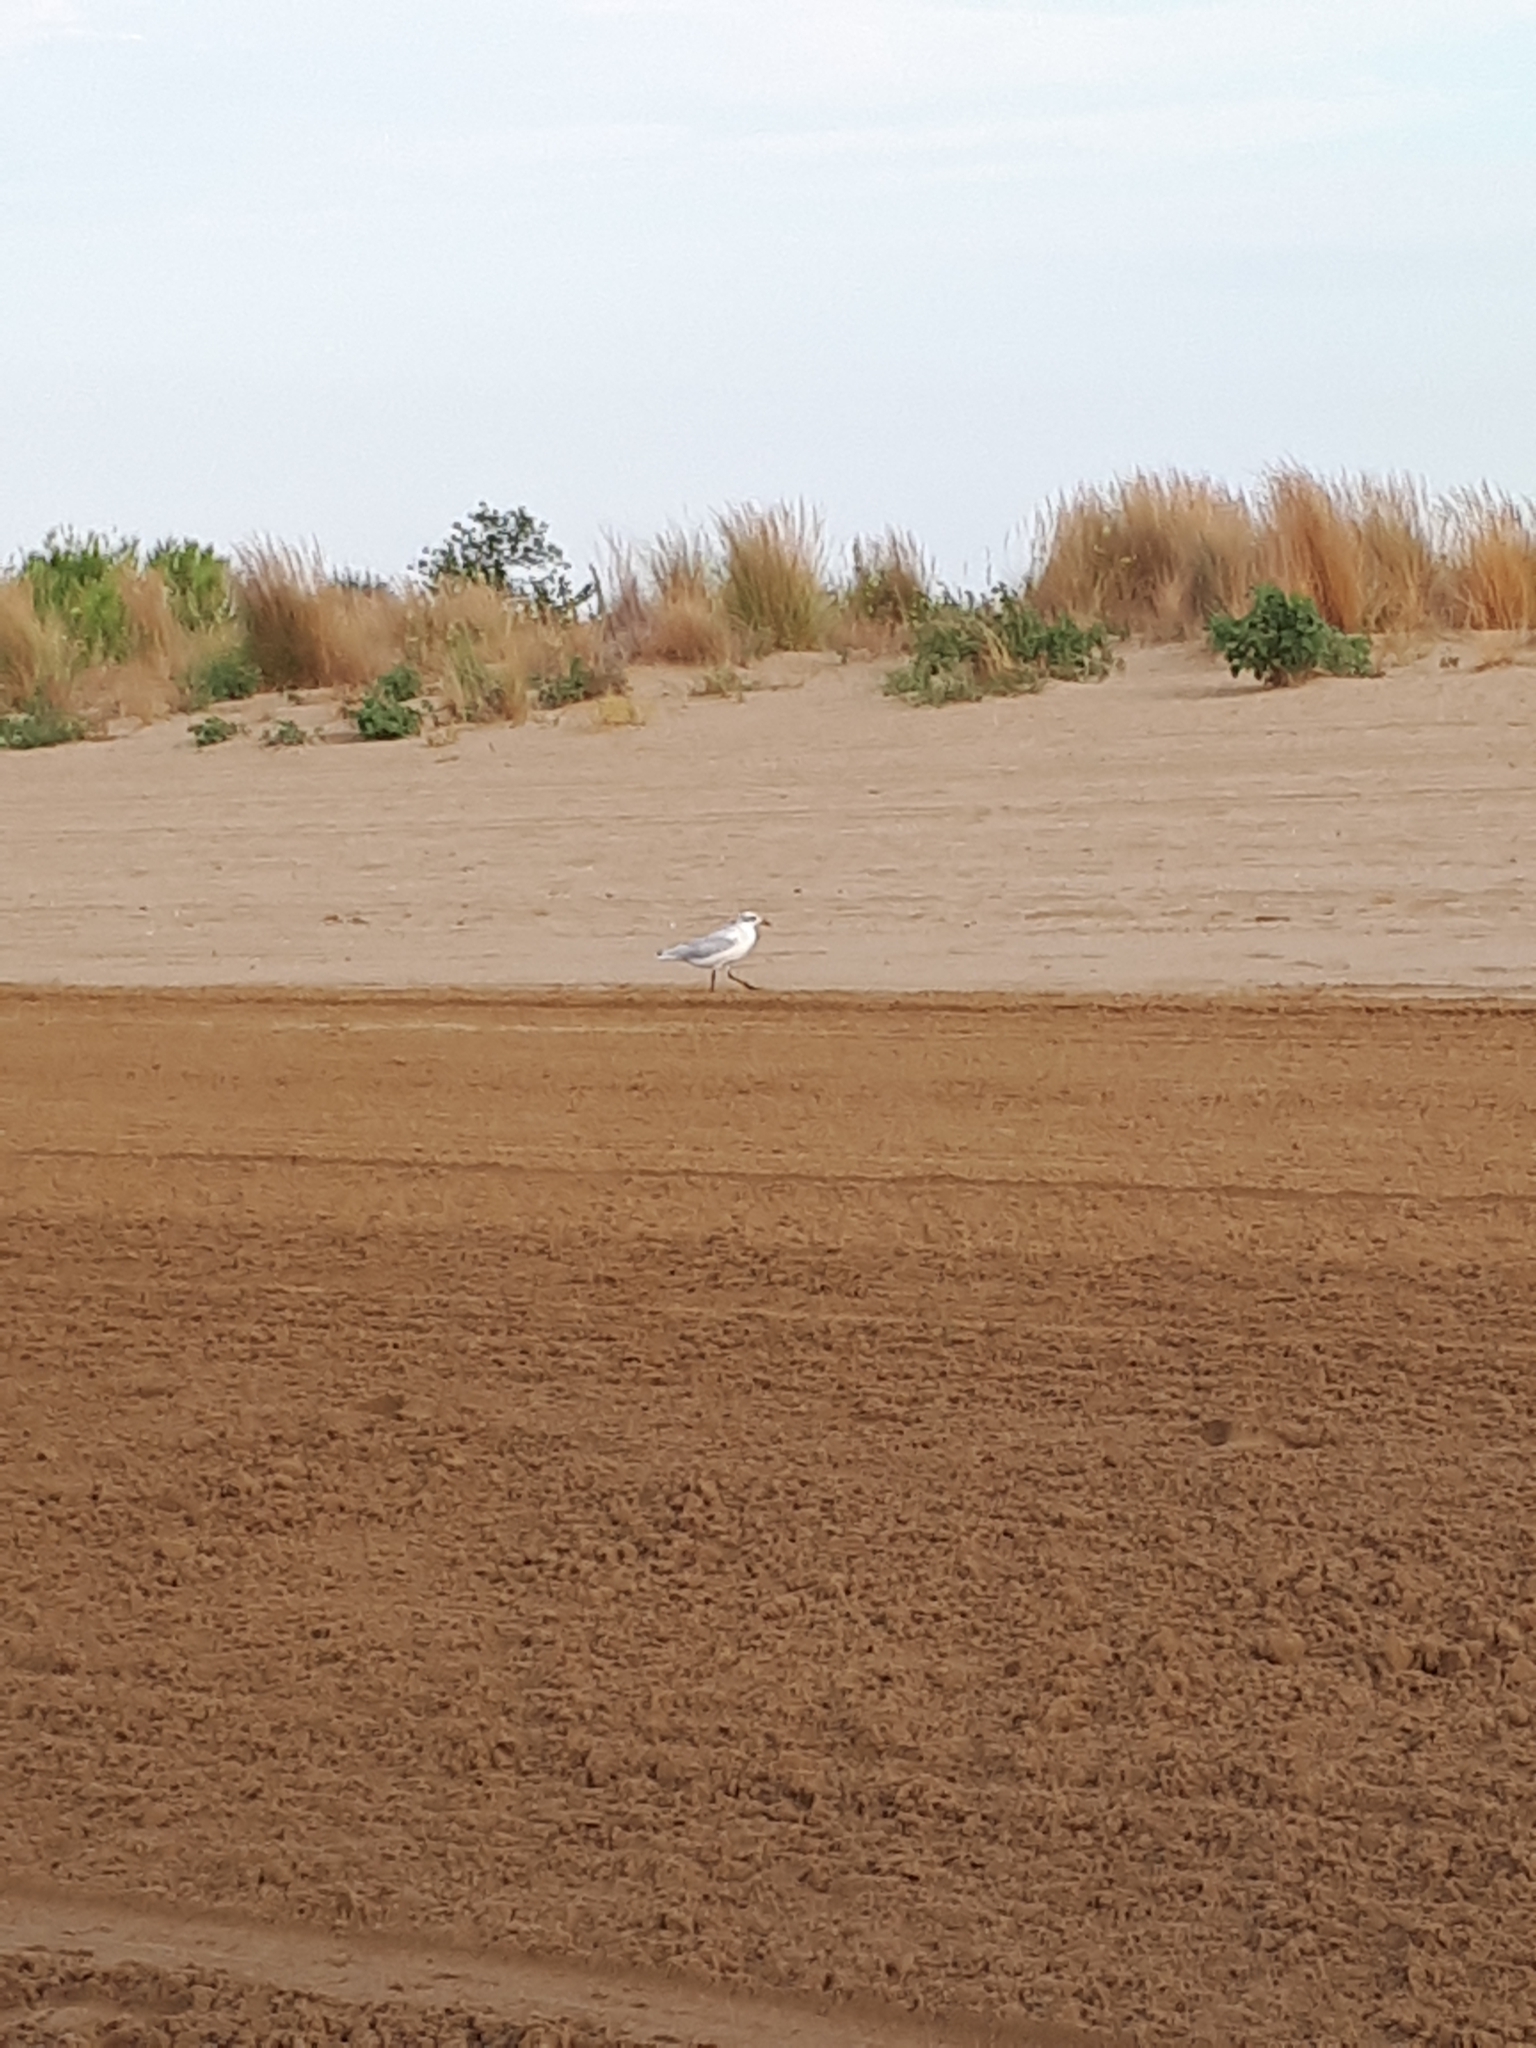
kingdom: Animalia
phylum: Chordata
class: Aves
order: Charadriiformes
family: Laridae
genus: Chroicocephalus
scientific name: Chroicocephalus ridibundus
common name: Black-headed gull
